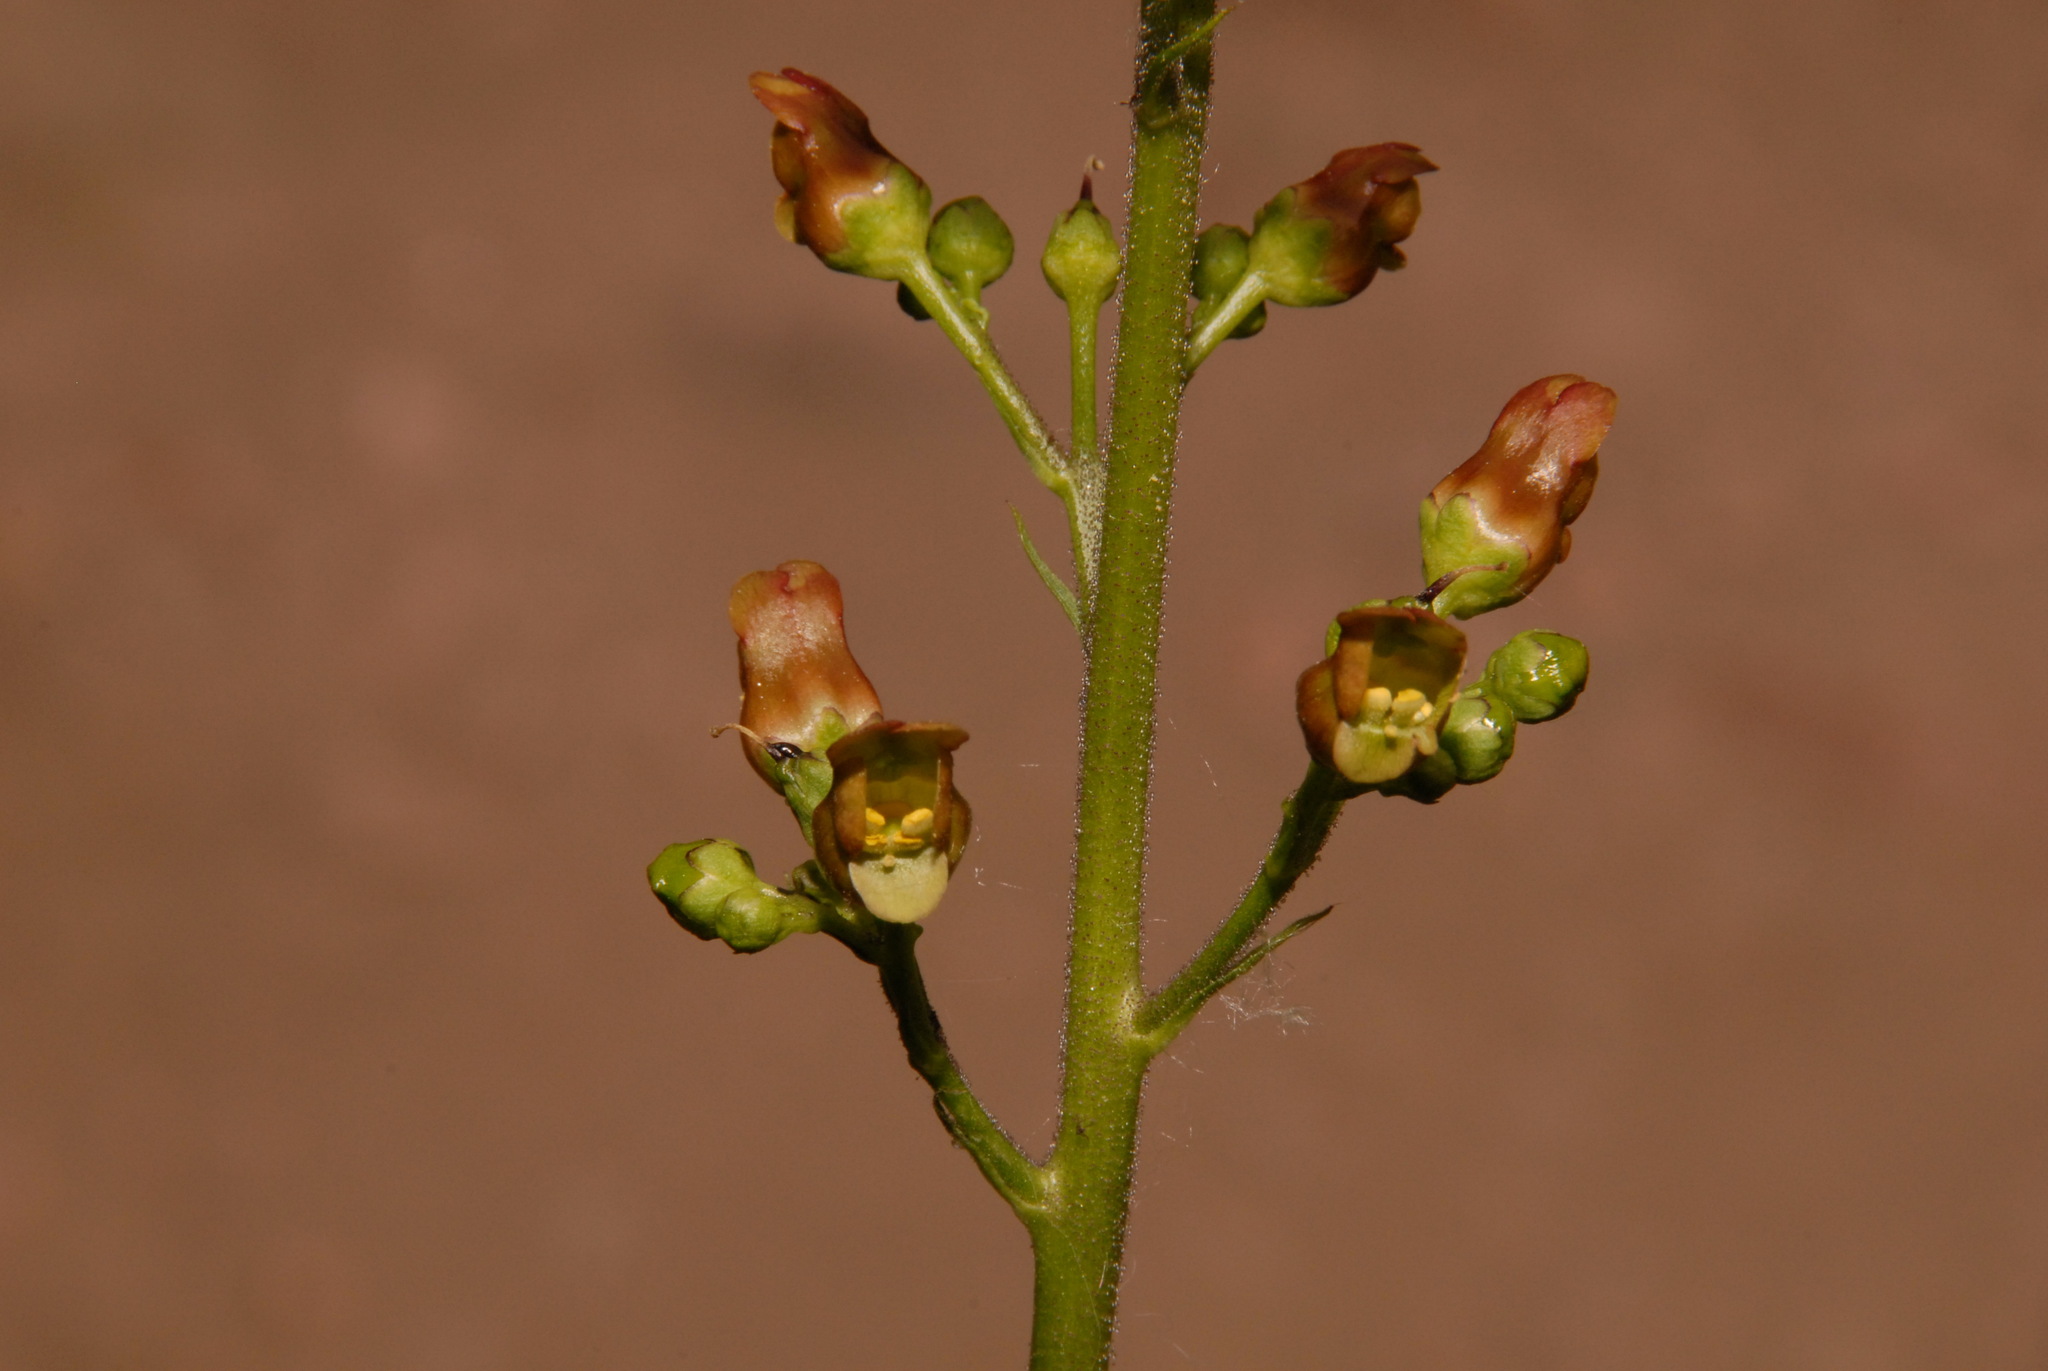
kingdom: Plantae
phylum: Tracheophyta
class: Magnoliopsida
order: Lamiales
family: Scrophulariaceae
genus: Scrophularia
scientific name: Scrophularia lanceolata
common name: American figwort
